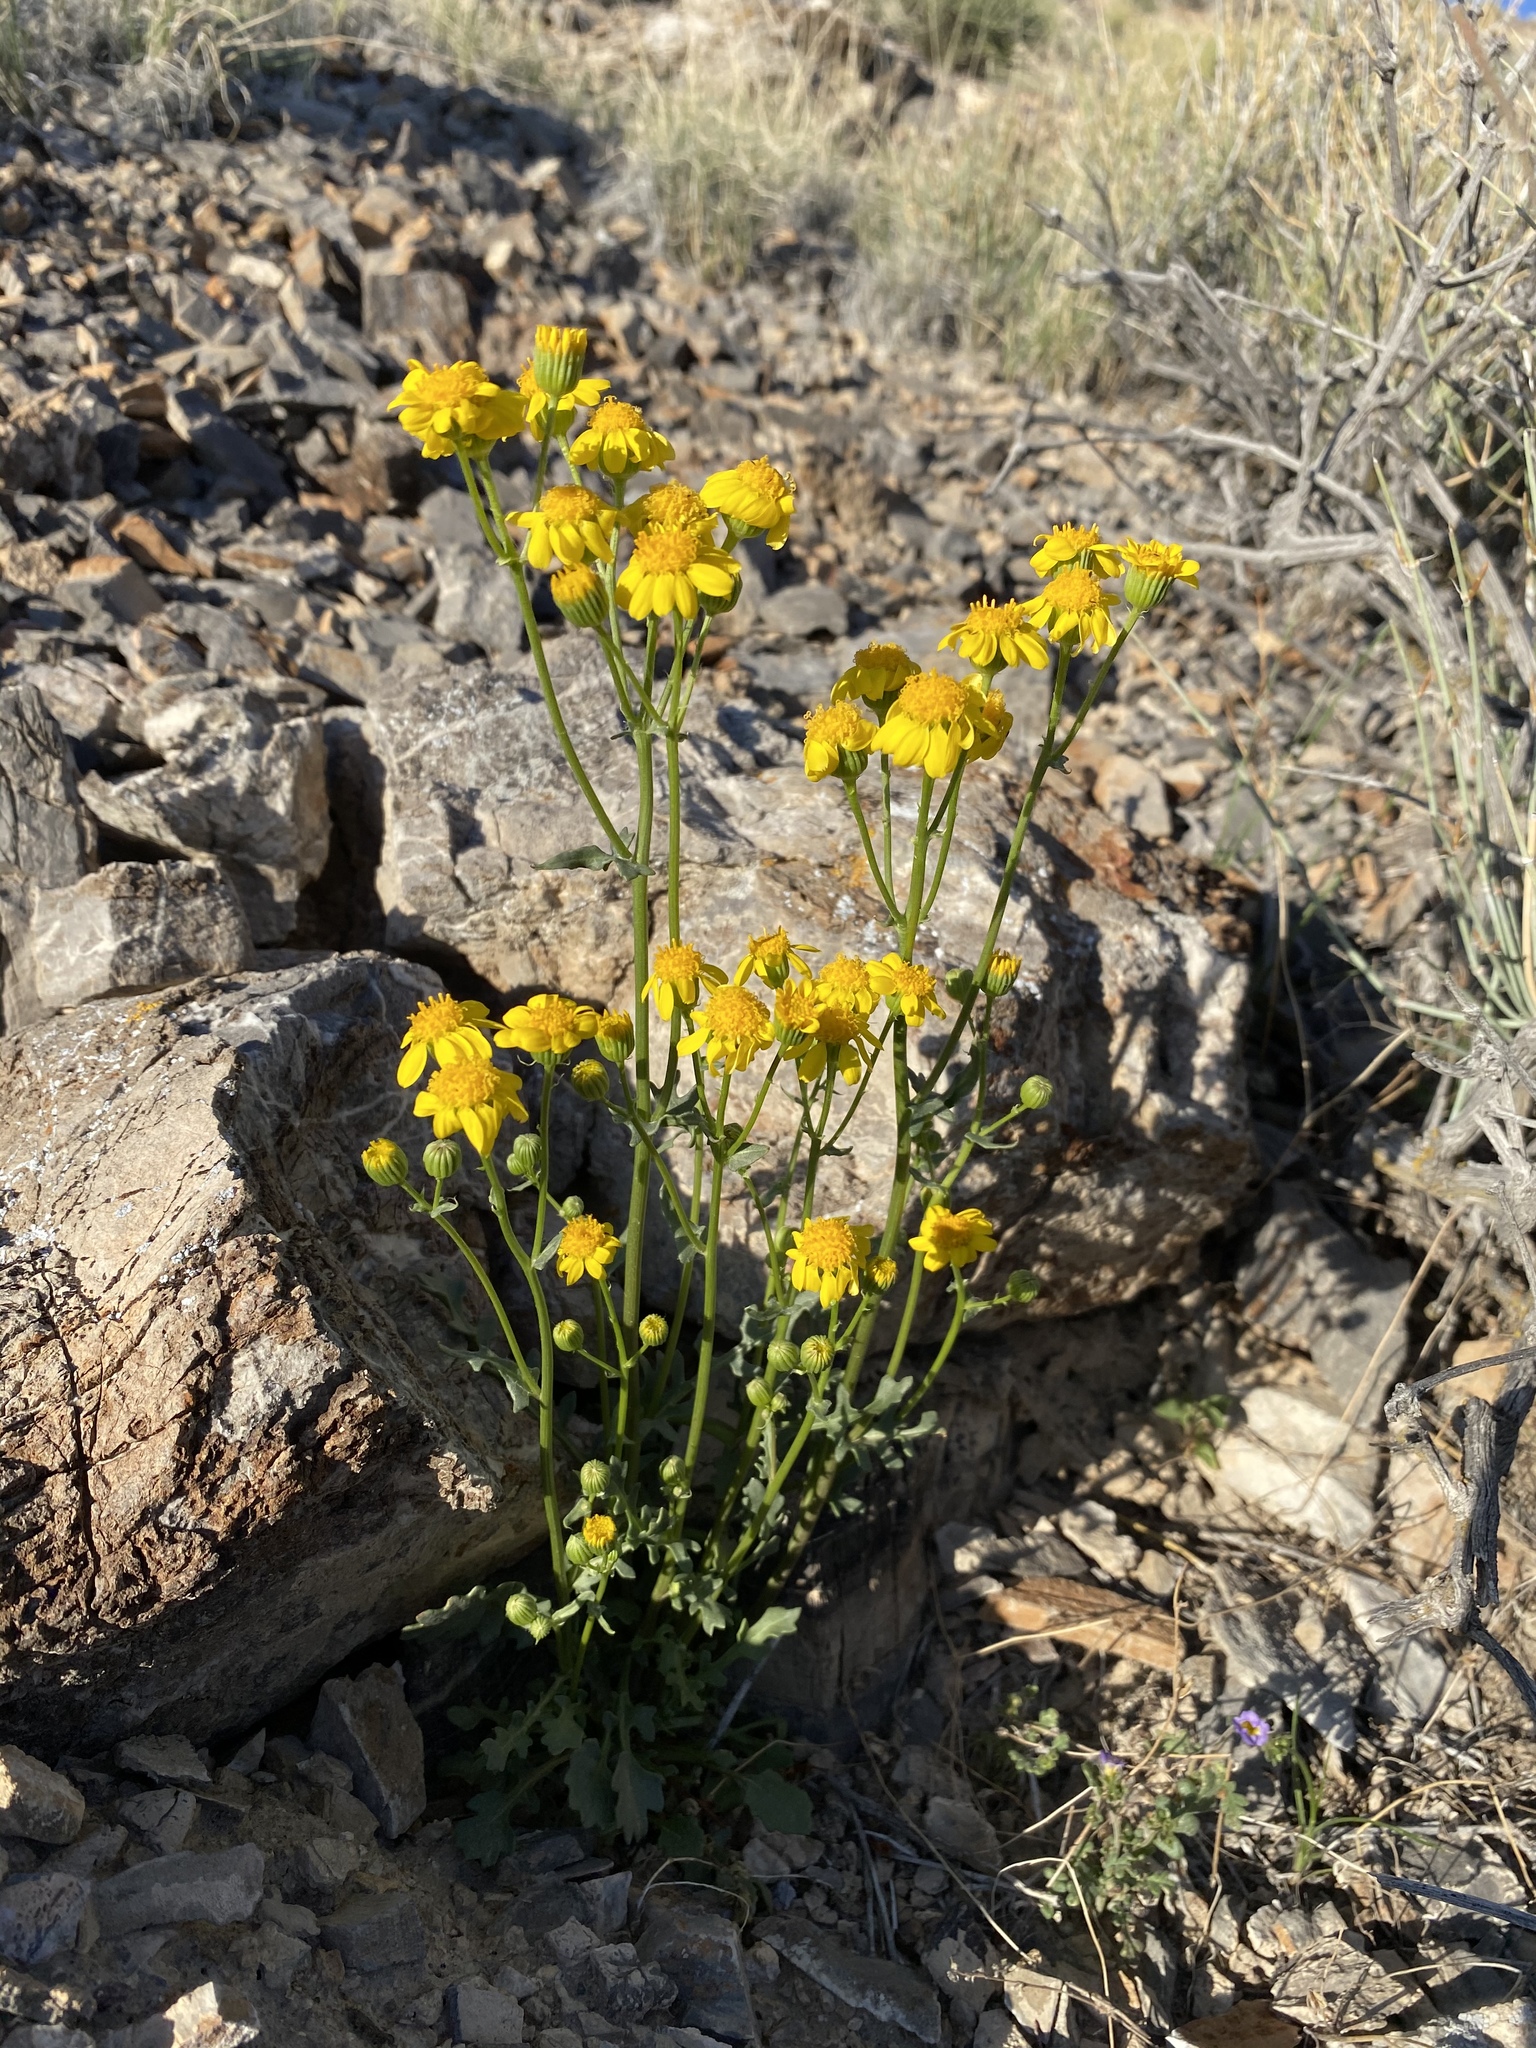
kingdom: Plantae
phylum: Tracheophyta
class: Magnoliopsida
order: Asterales
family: Asteraceae
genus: Packera
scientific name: Packera multilobata
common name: Lobe-leaf groundsel
